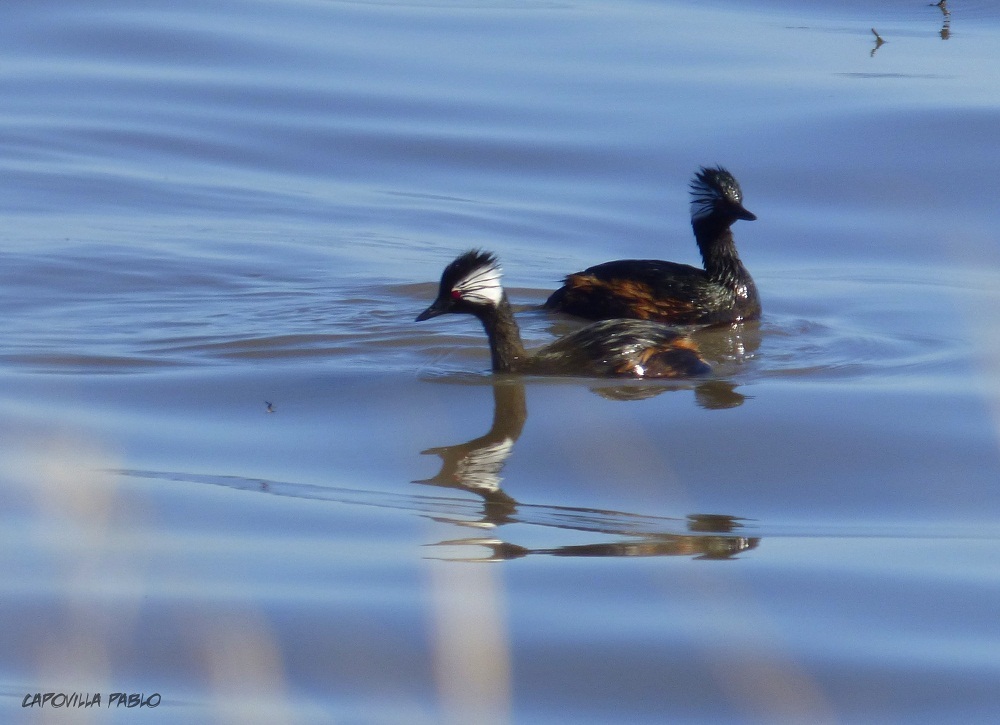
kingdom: Animalia
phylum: Chordata
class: Aves
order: Podicipediformes
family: Podicipedidae
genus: Rollandia
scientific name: Rollandia rolland
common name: White-tufted grebe
